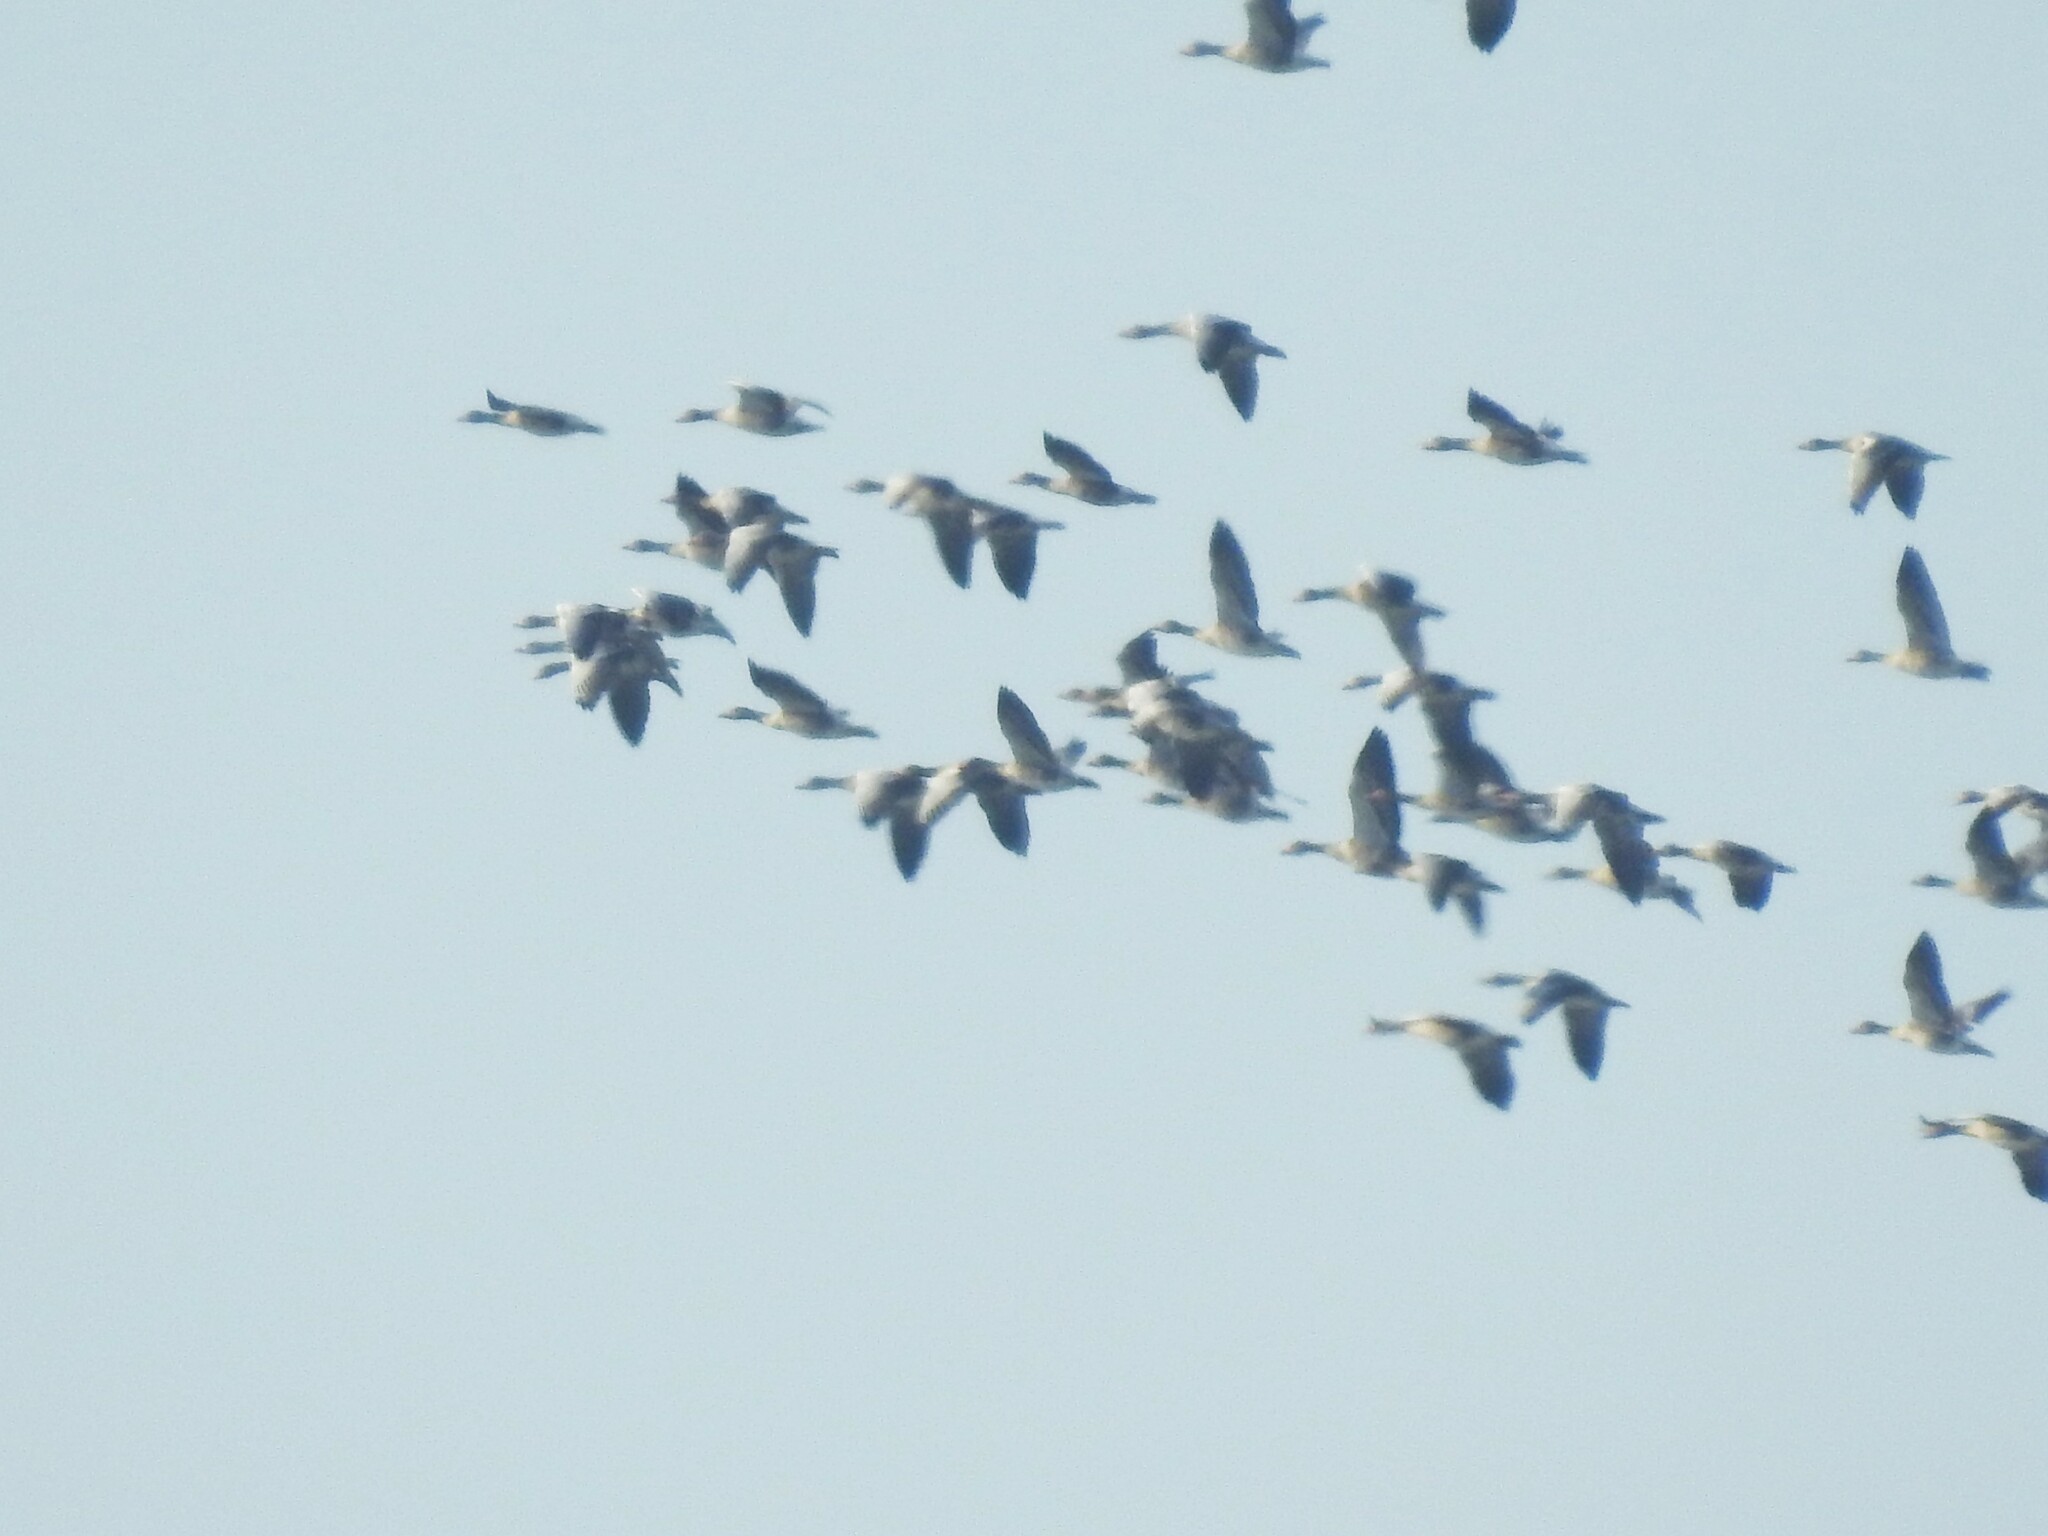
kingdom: Animalia
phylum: Chordata
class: Aves
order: Anseriformes
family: Anatidae
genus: Anser
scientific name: Anser anser
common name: Greylag goose
